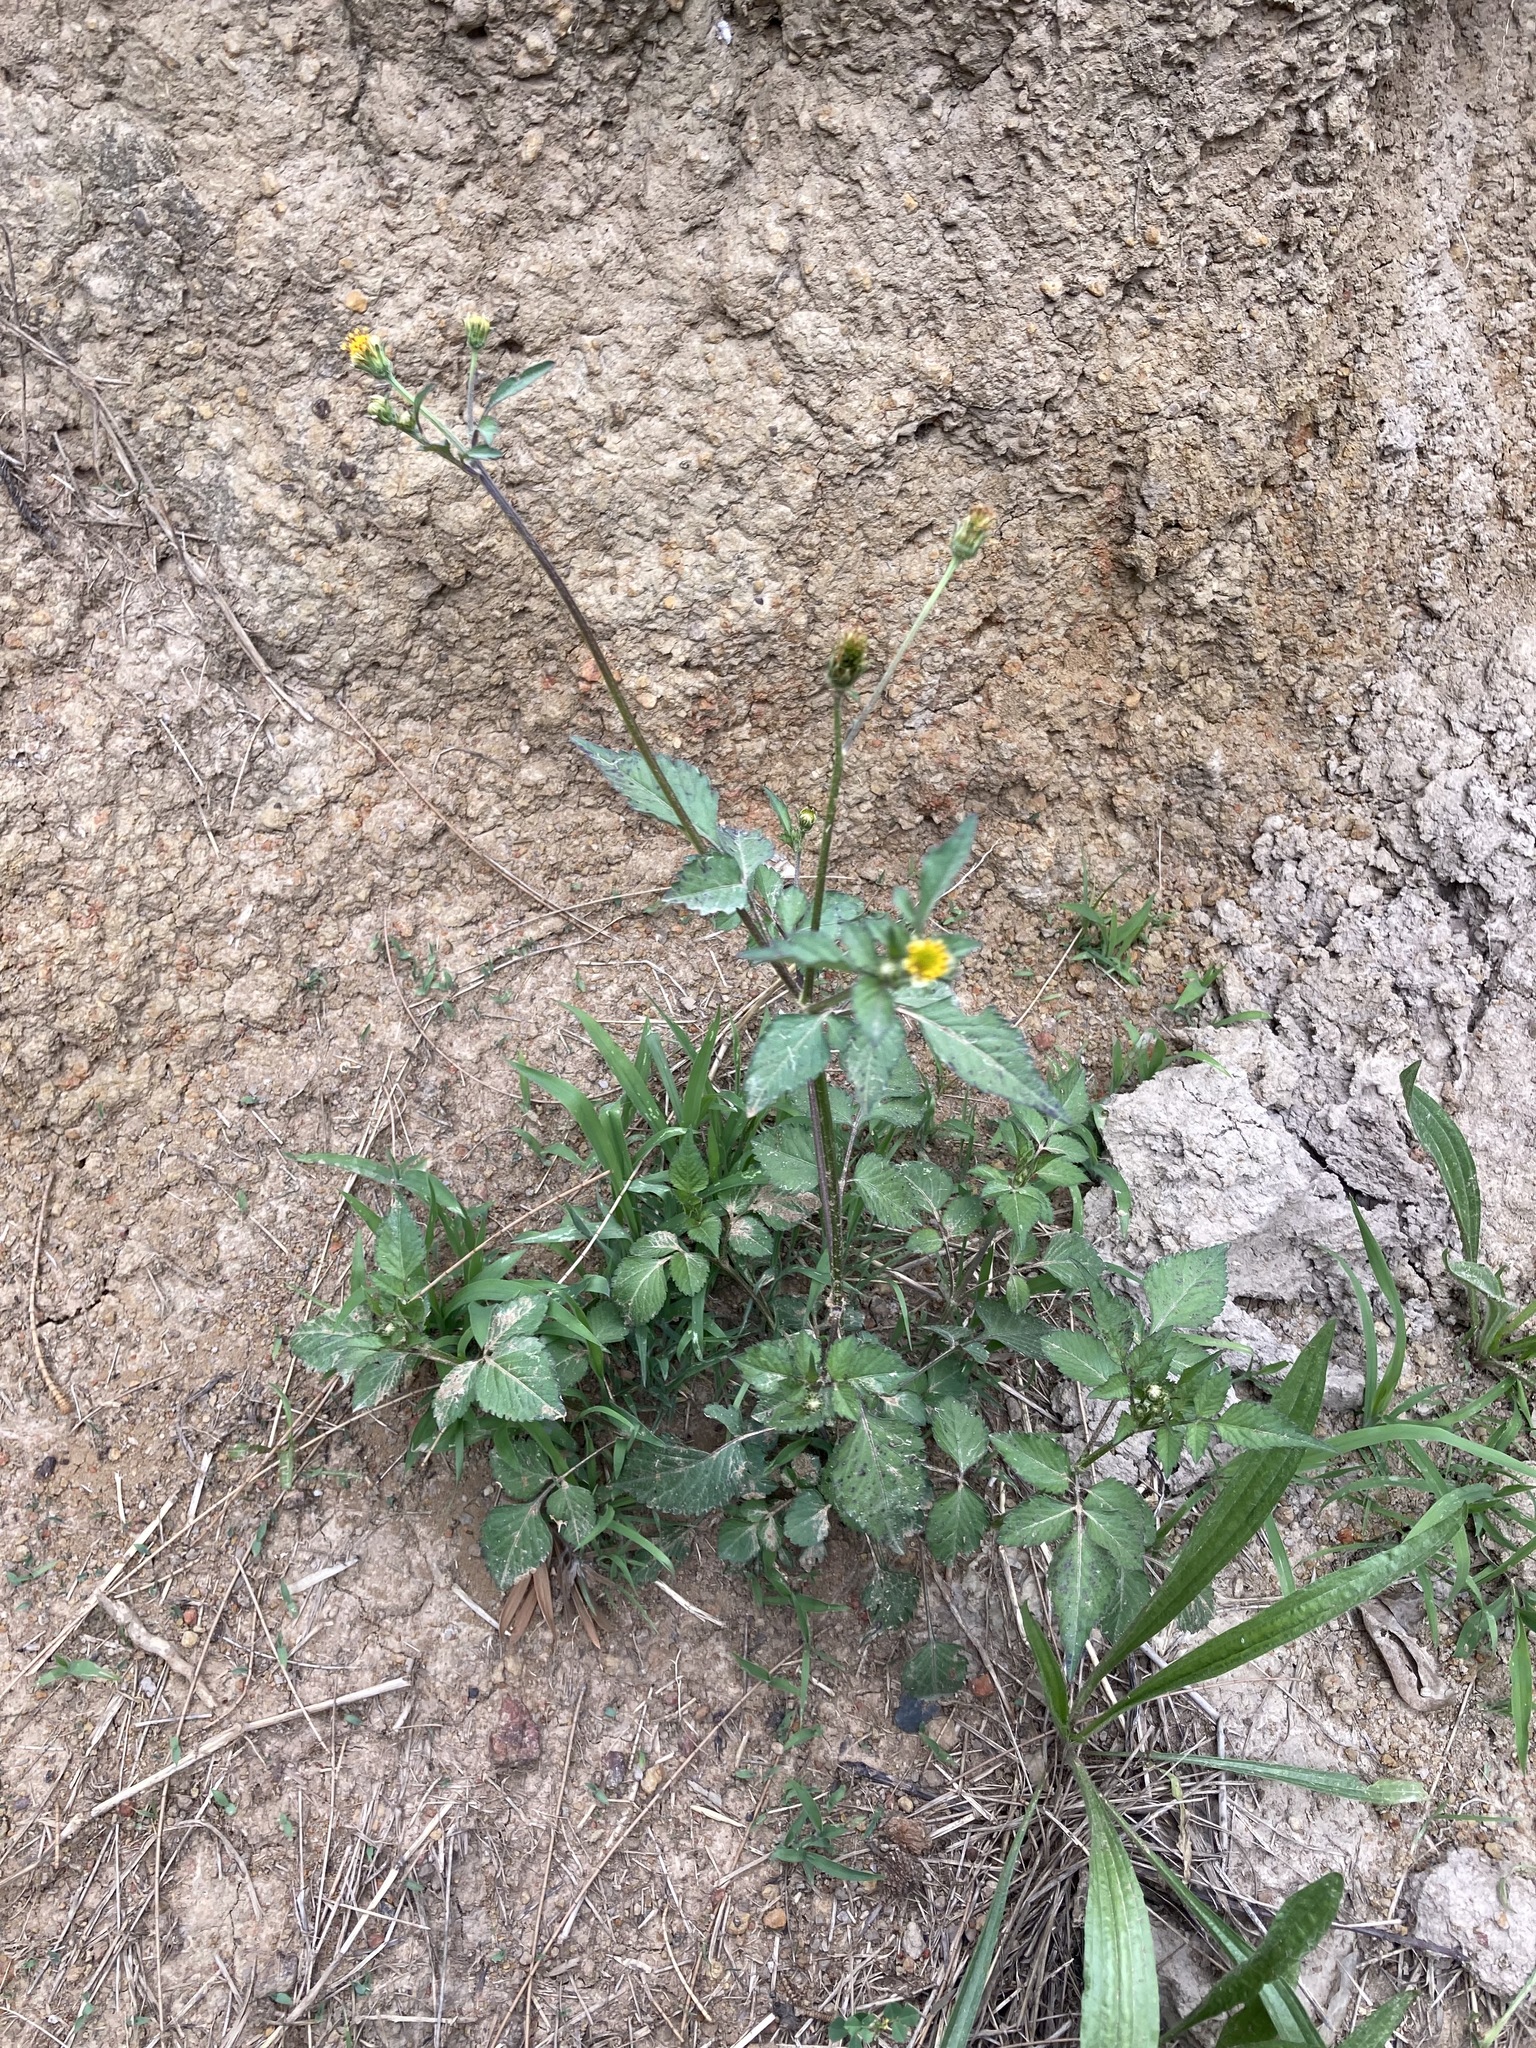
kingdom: Plantae
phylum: Tracheophyta
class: Magnoliopsida
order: Asterales
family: Asteraceae
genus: Bidens
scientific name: Bidens pilosa
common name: Black-jack
